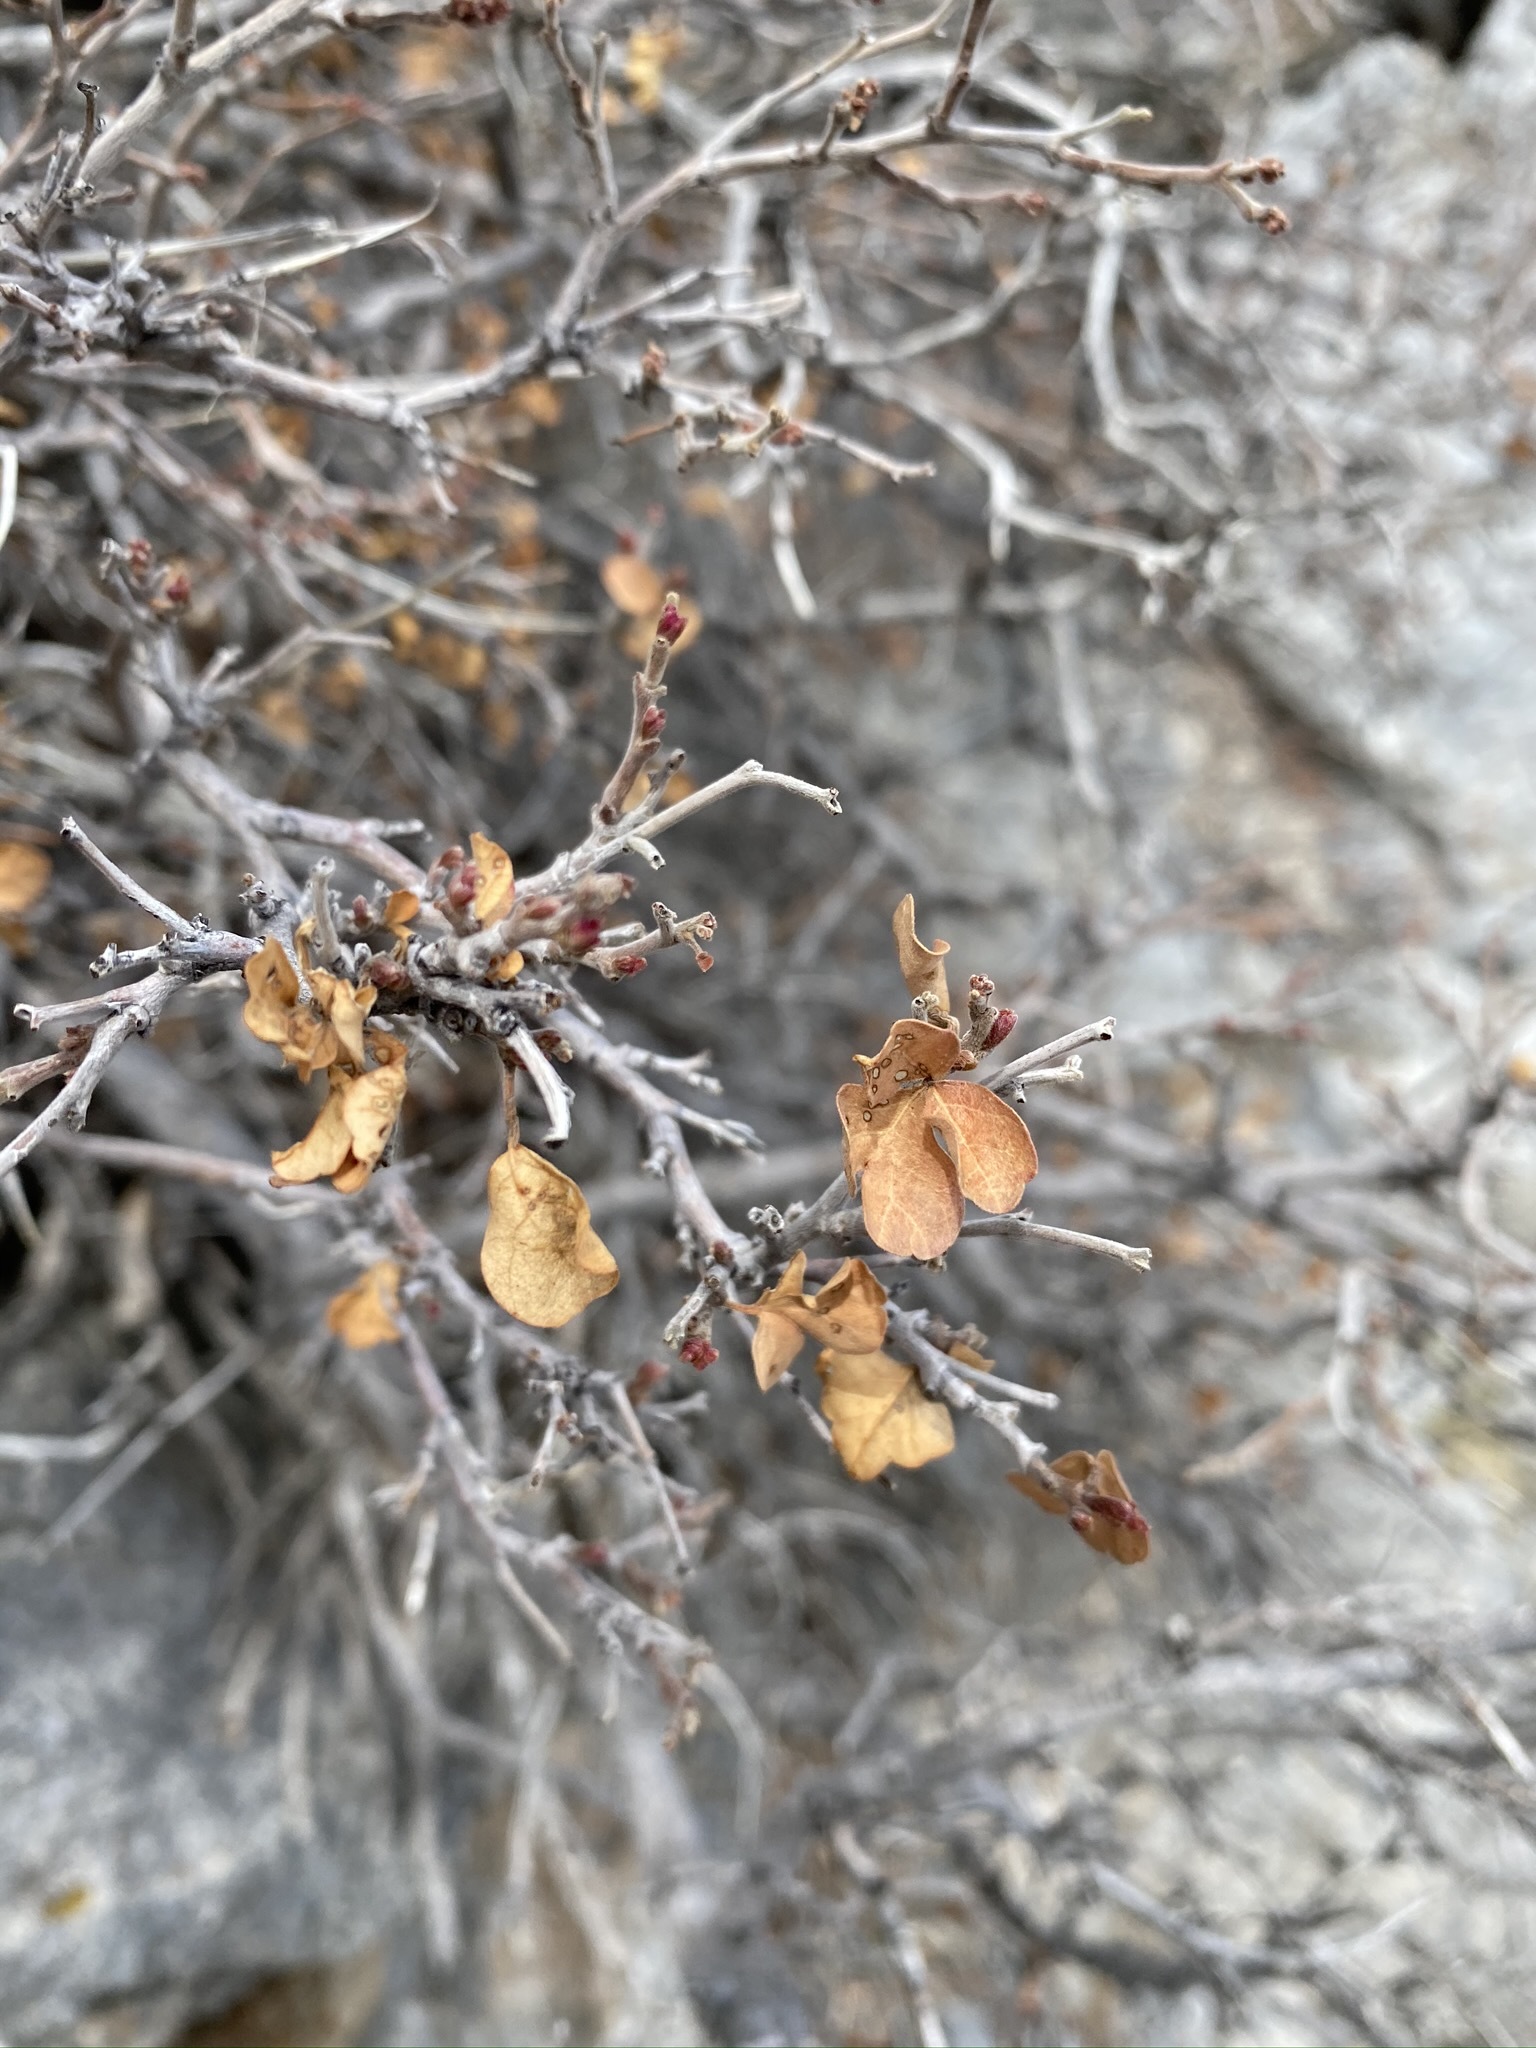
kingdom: Plantae
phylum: Tracheophyta
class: Magnoliopsida
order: Sapindales
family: Anacardiaceae
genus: Rhus
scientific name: Rhus aromatica
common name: Aromatic sumac
